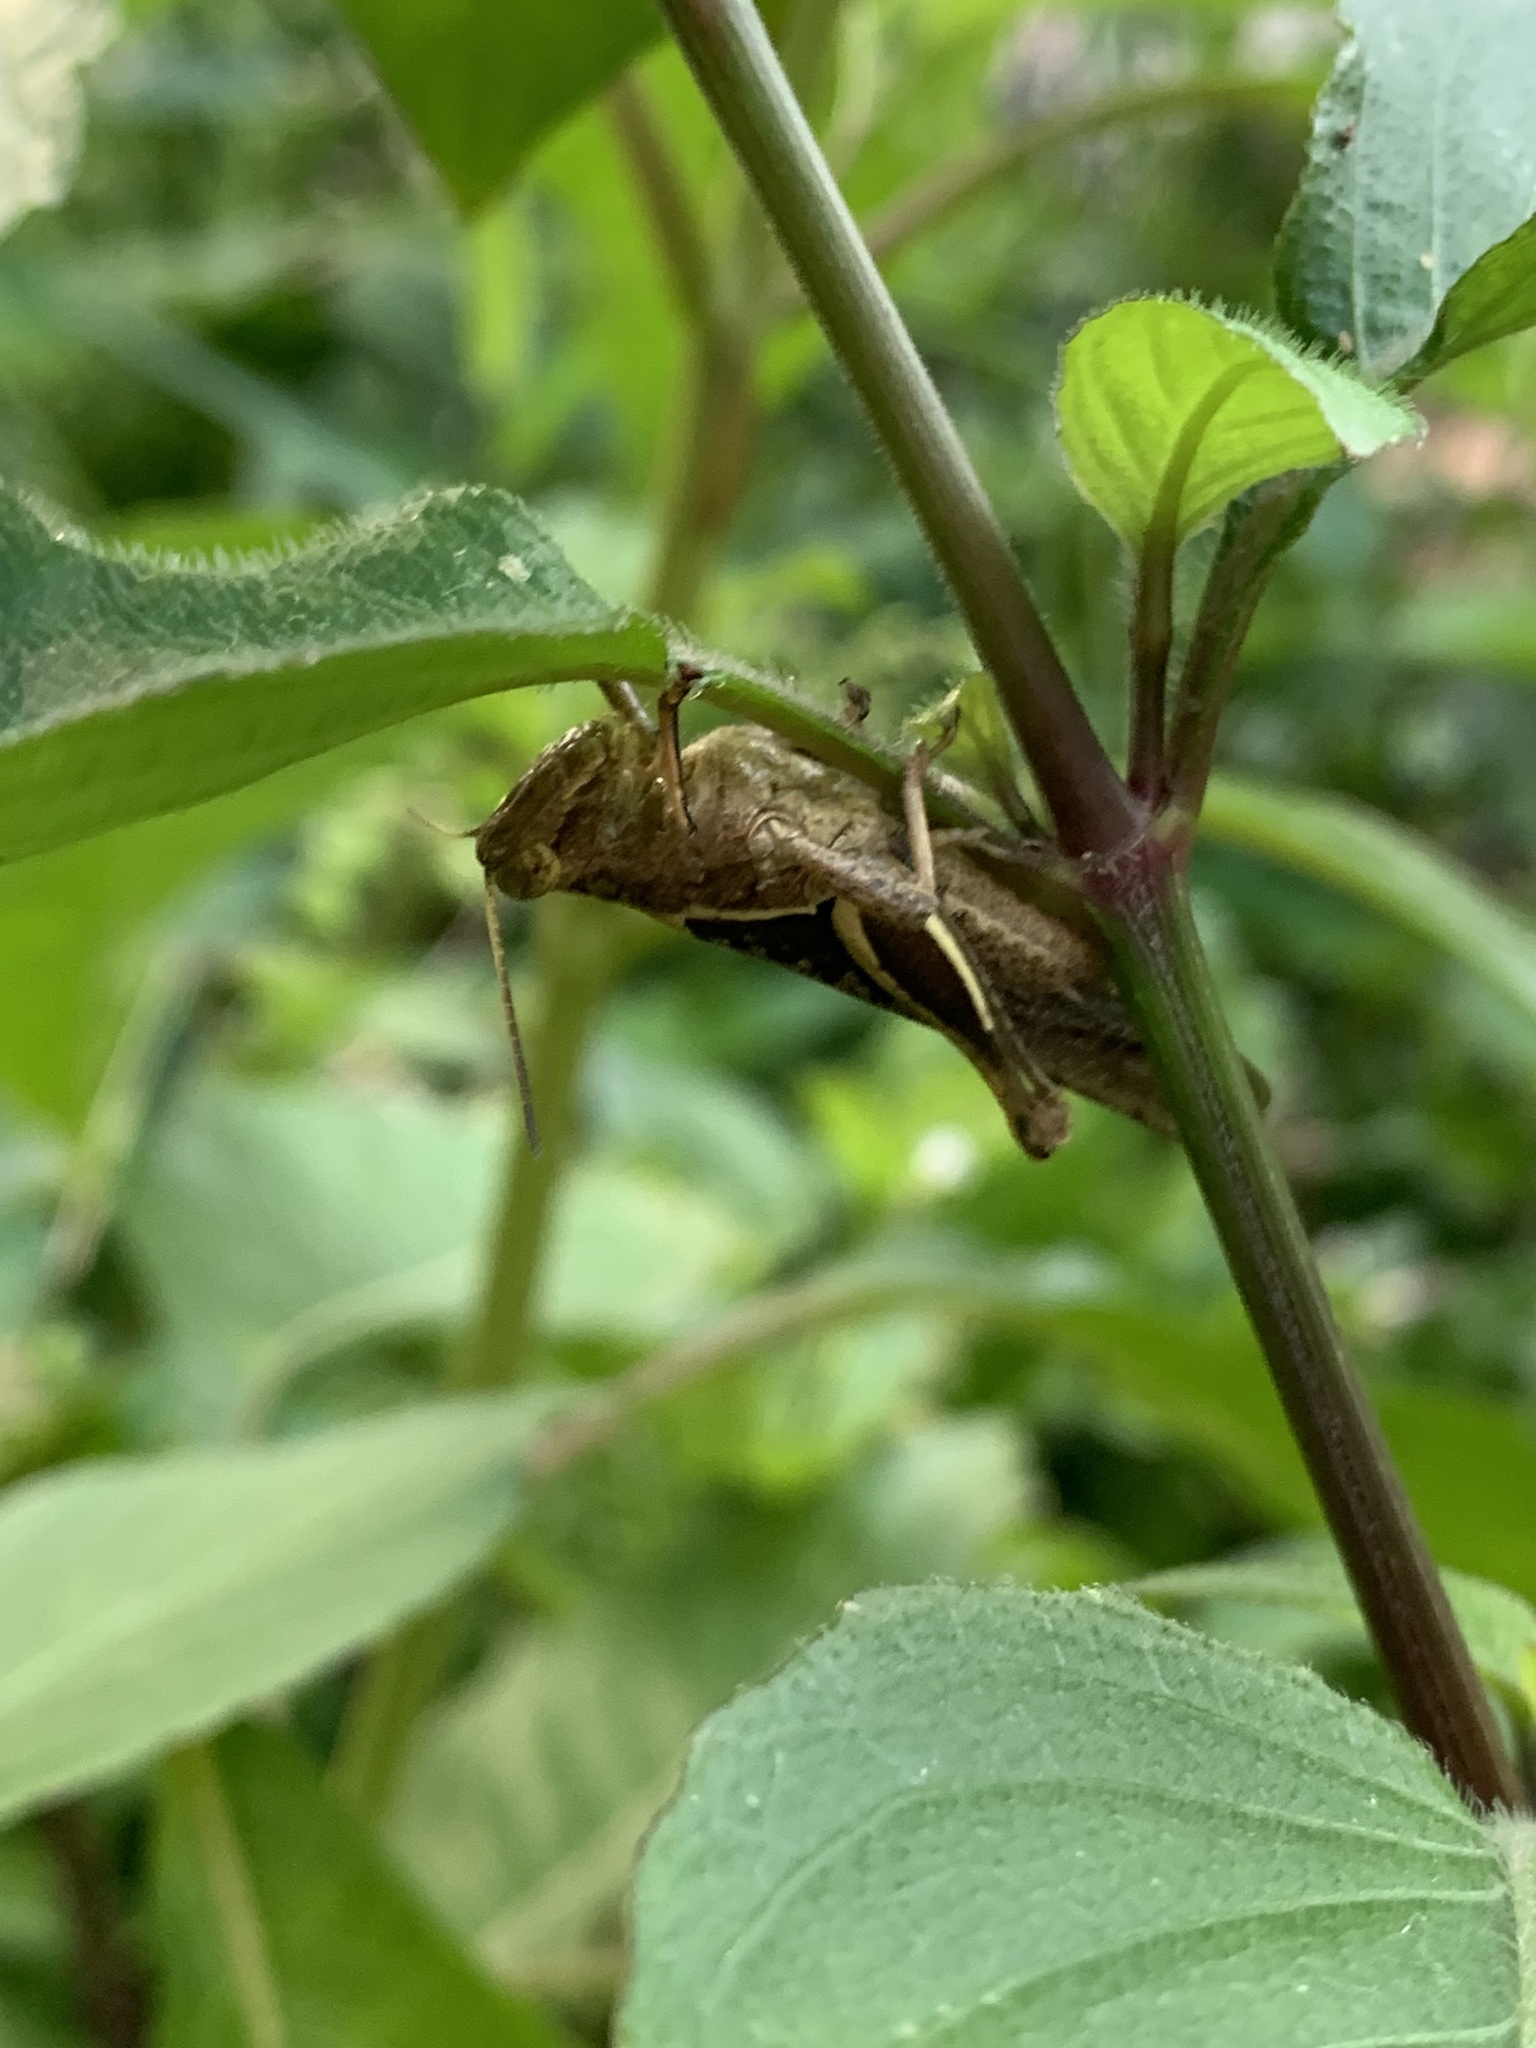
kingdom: Animalia
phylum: Arthropoda
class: Insecta
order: Orthoptera
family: Acrididae
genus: Abracris
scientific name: Abracris flavolineata
